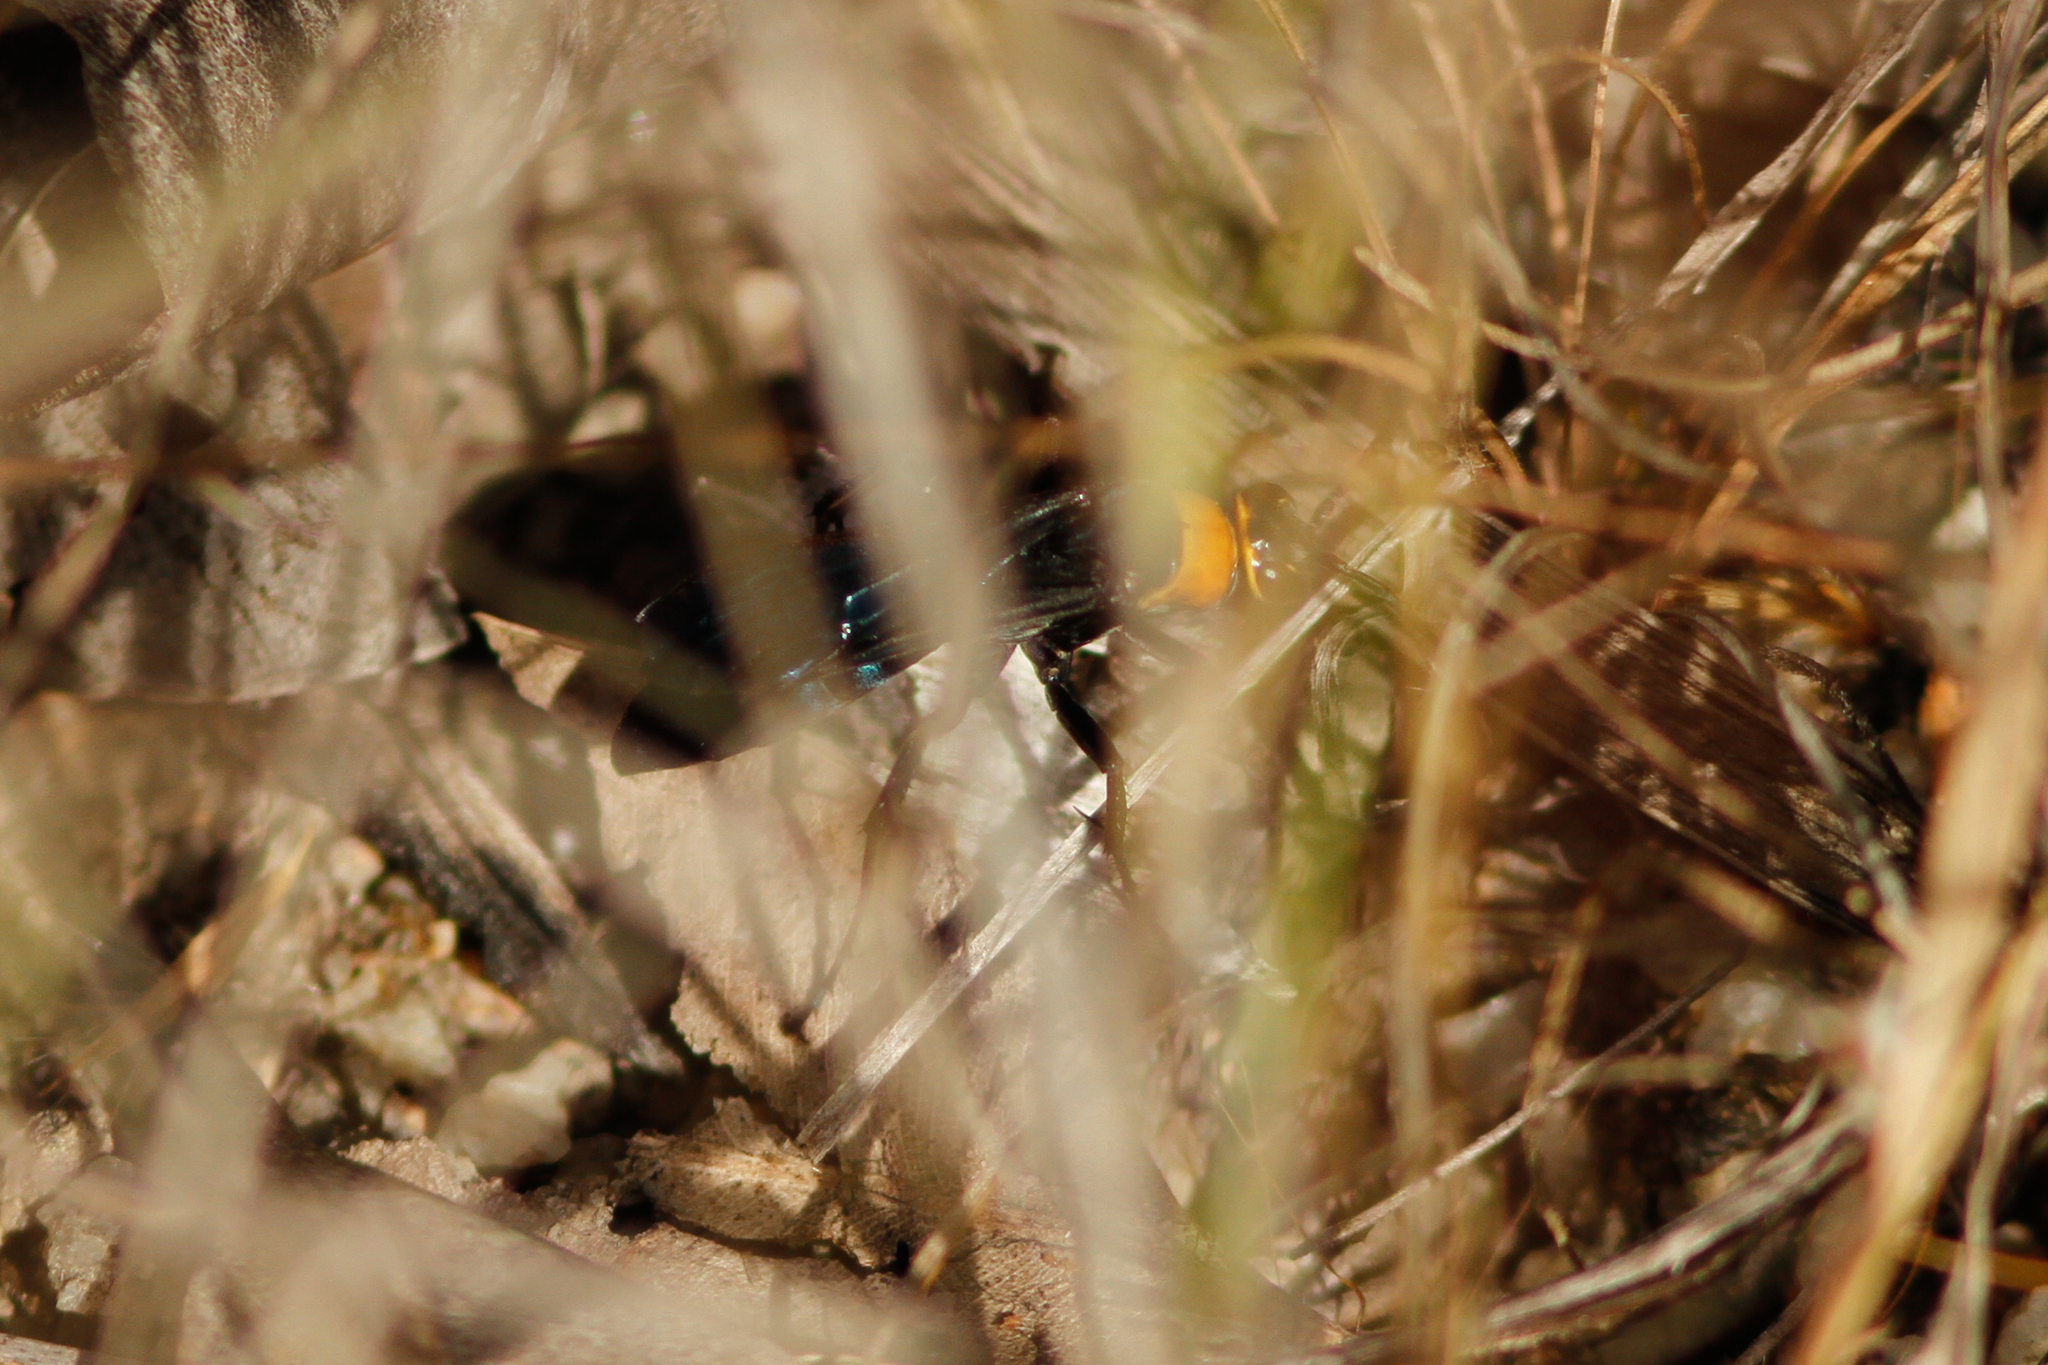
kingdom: Animalia
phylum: Arthropoda
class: Insecta
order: Hymenoptera
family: Pompilidae
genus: Ferreola
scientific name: Ferreola handschini
